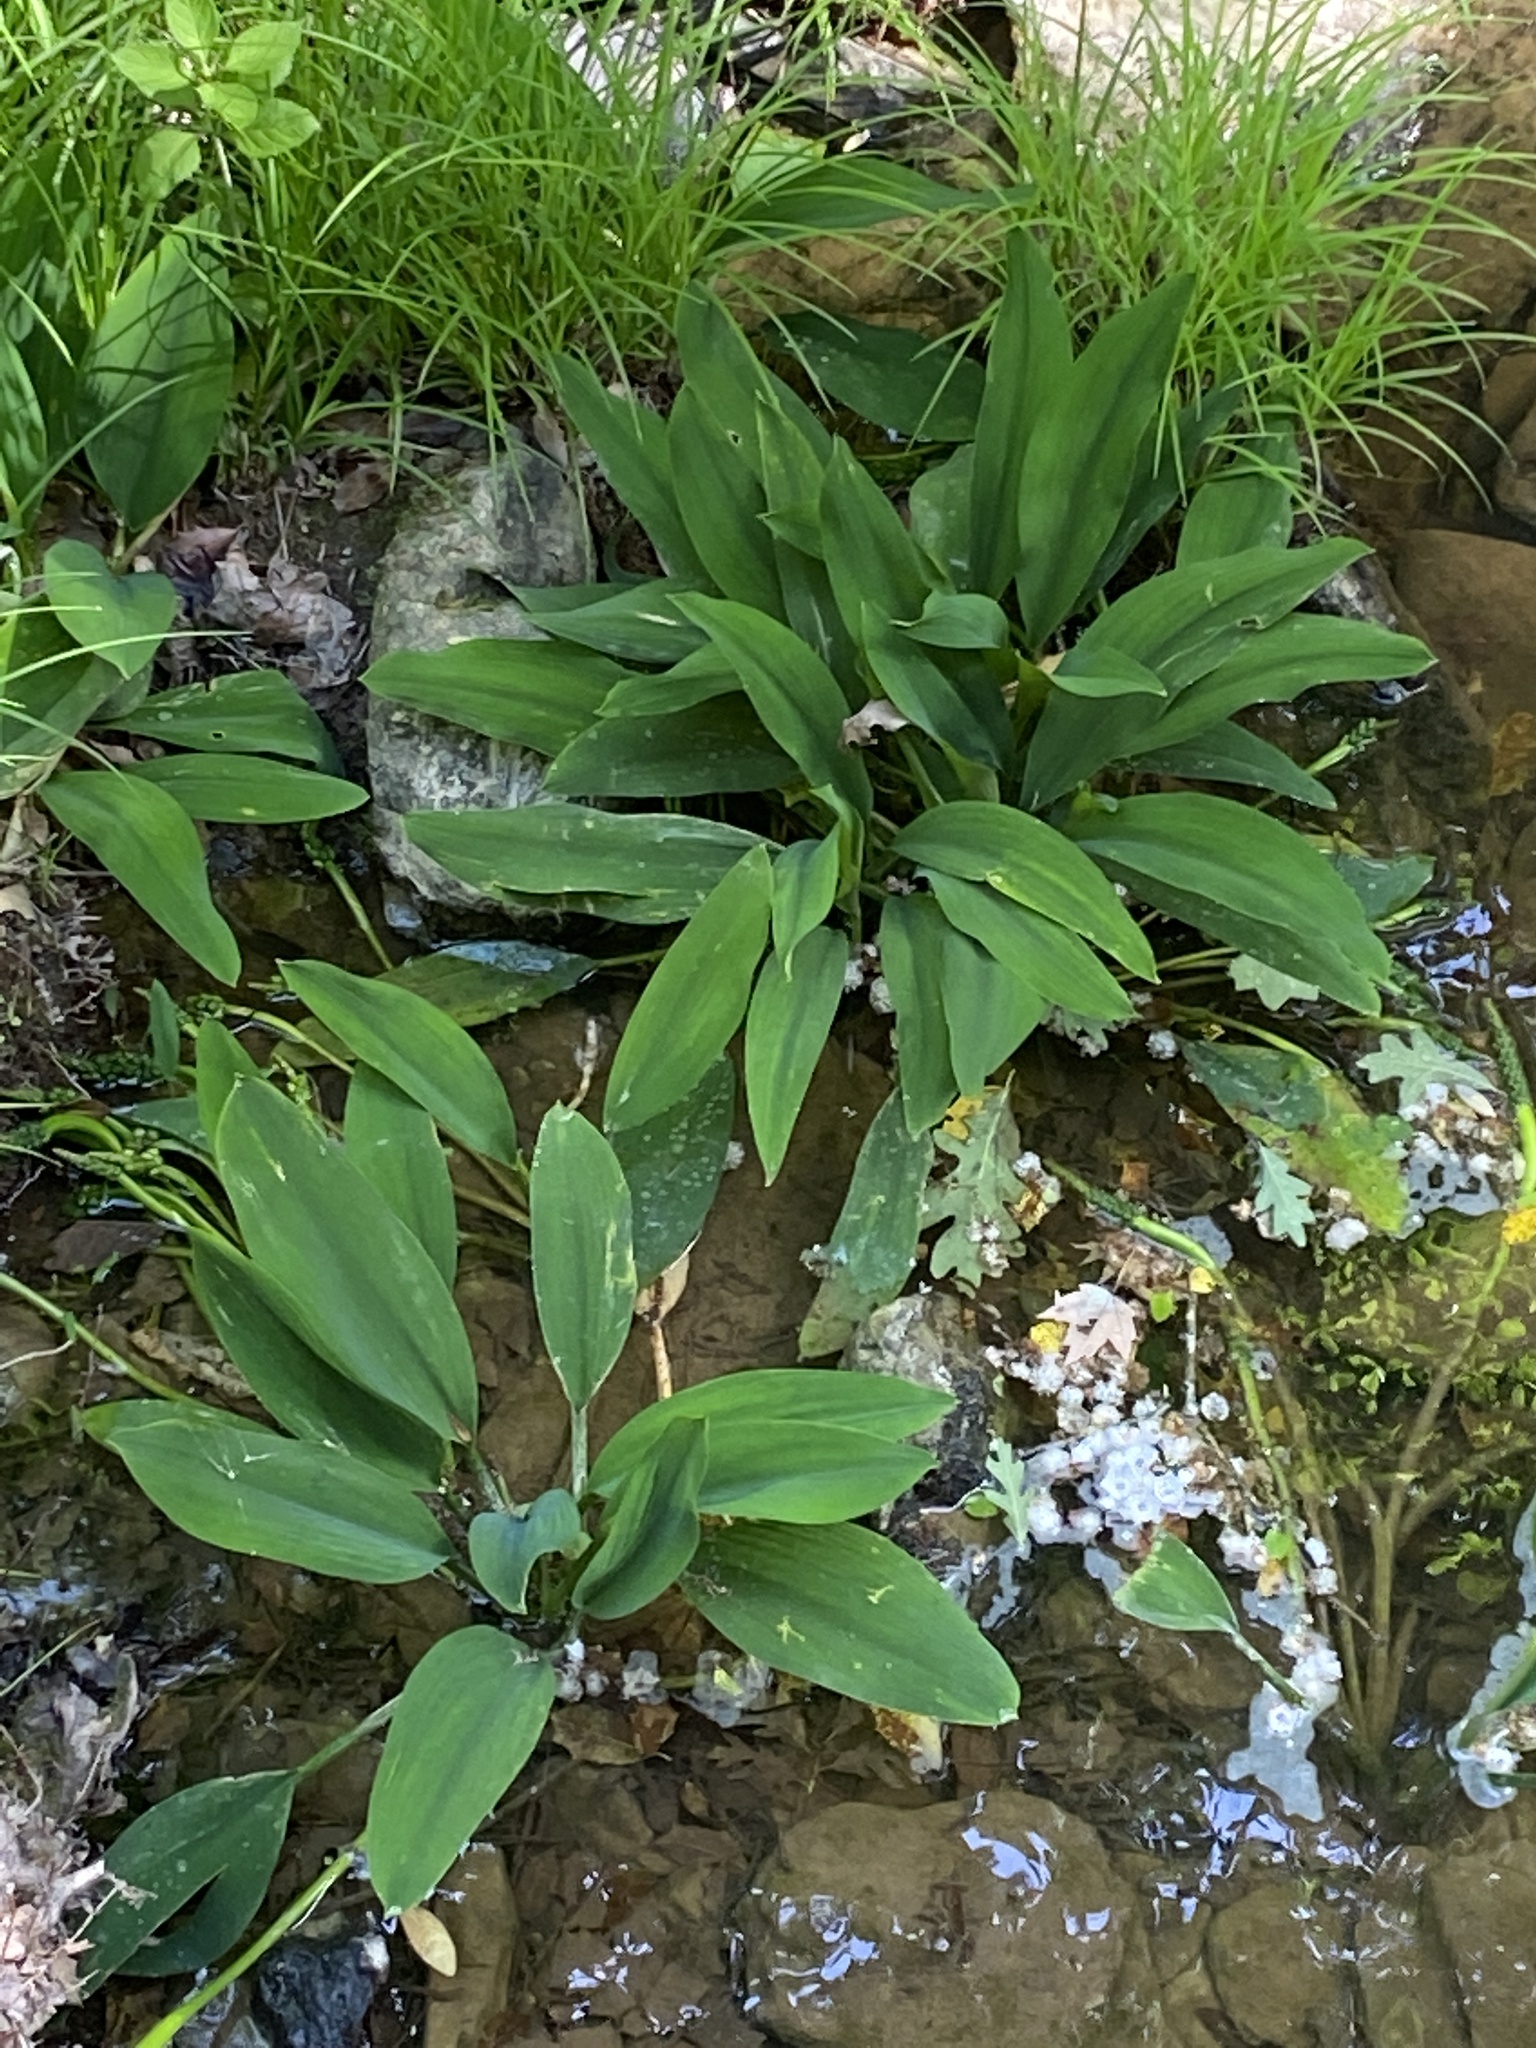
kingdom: Plantae
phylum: Tracheophyta
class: Liliopsida
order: Alismatales
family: Araceae
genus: Orontium
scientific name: Orontium aquaticum
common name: Golden-club
